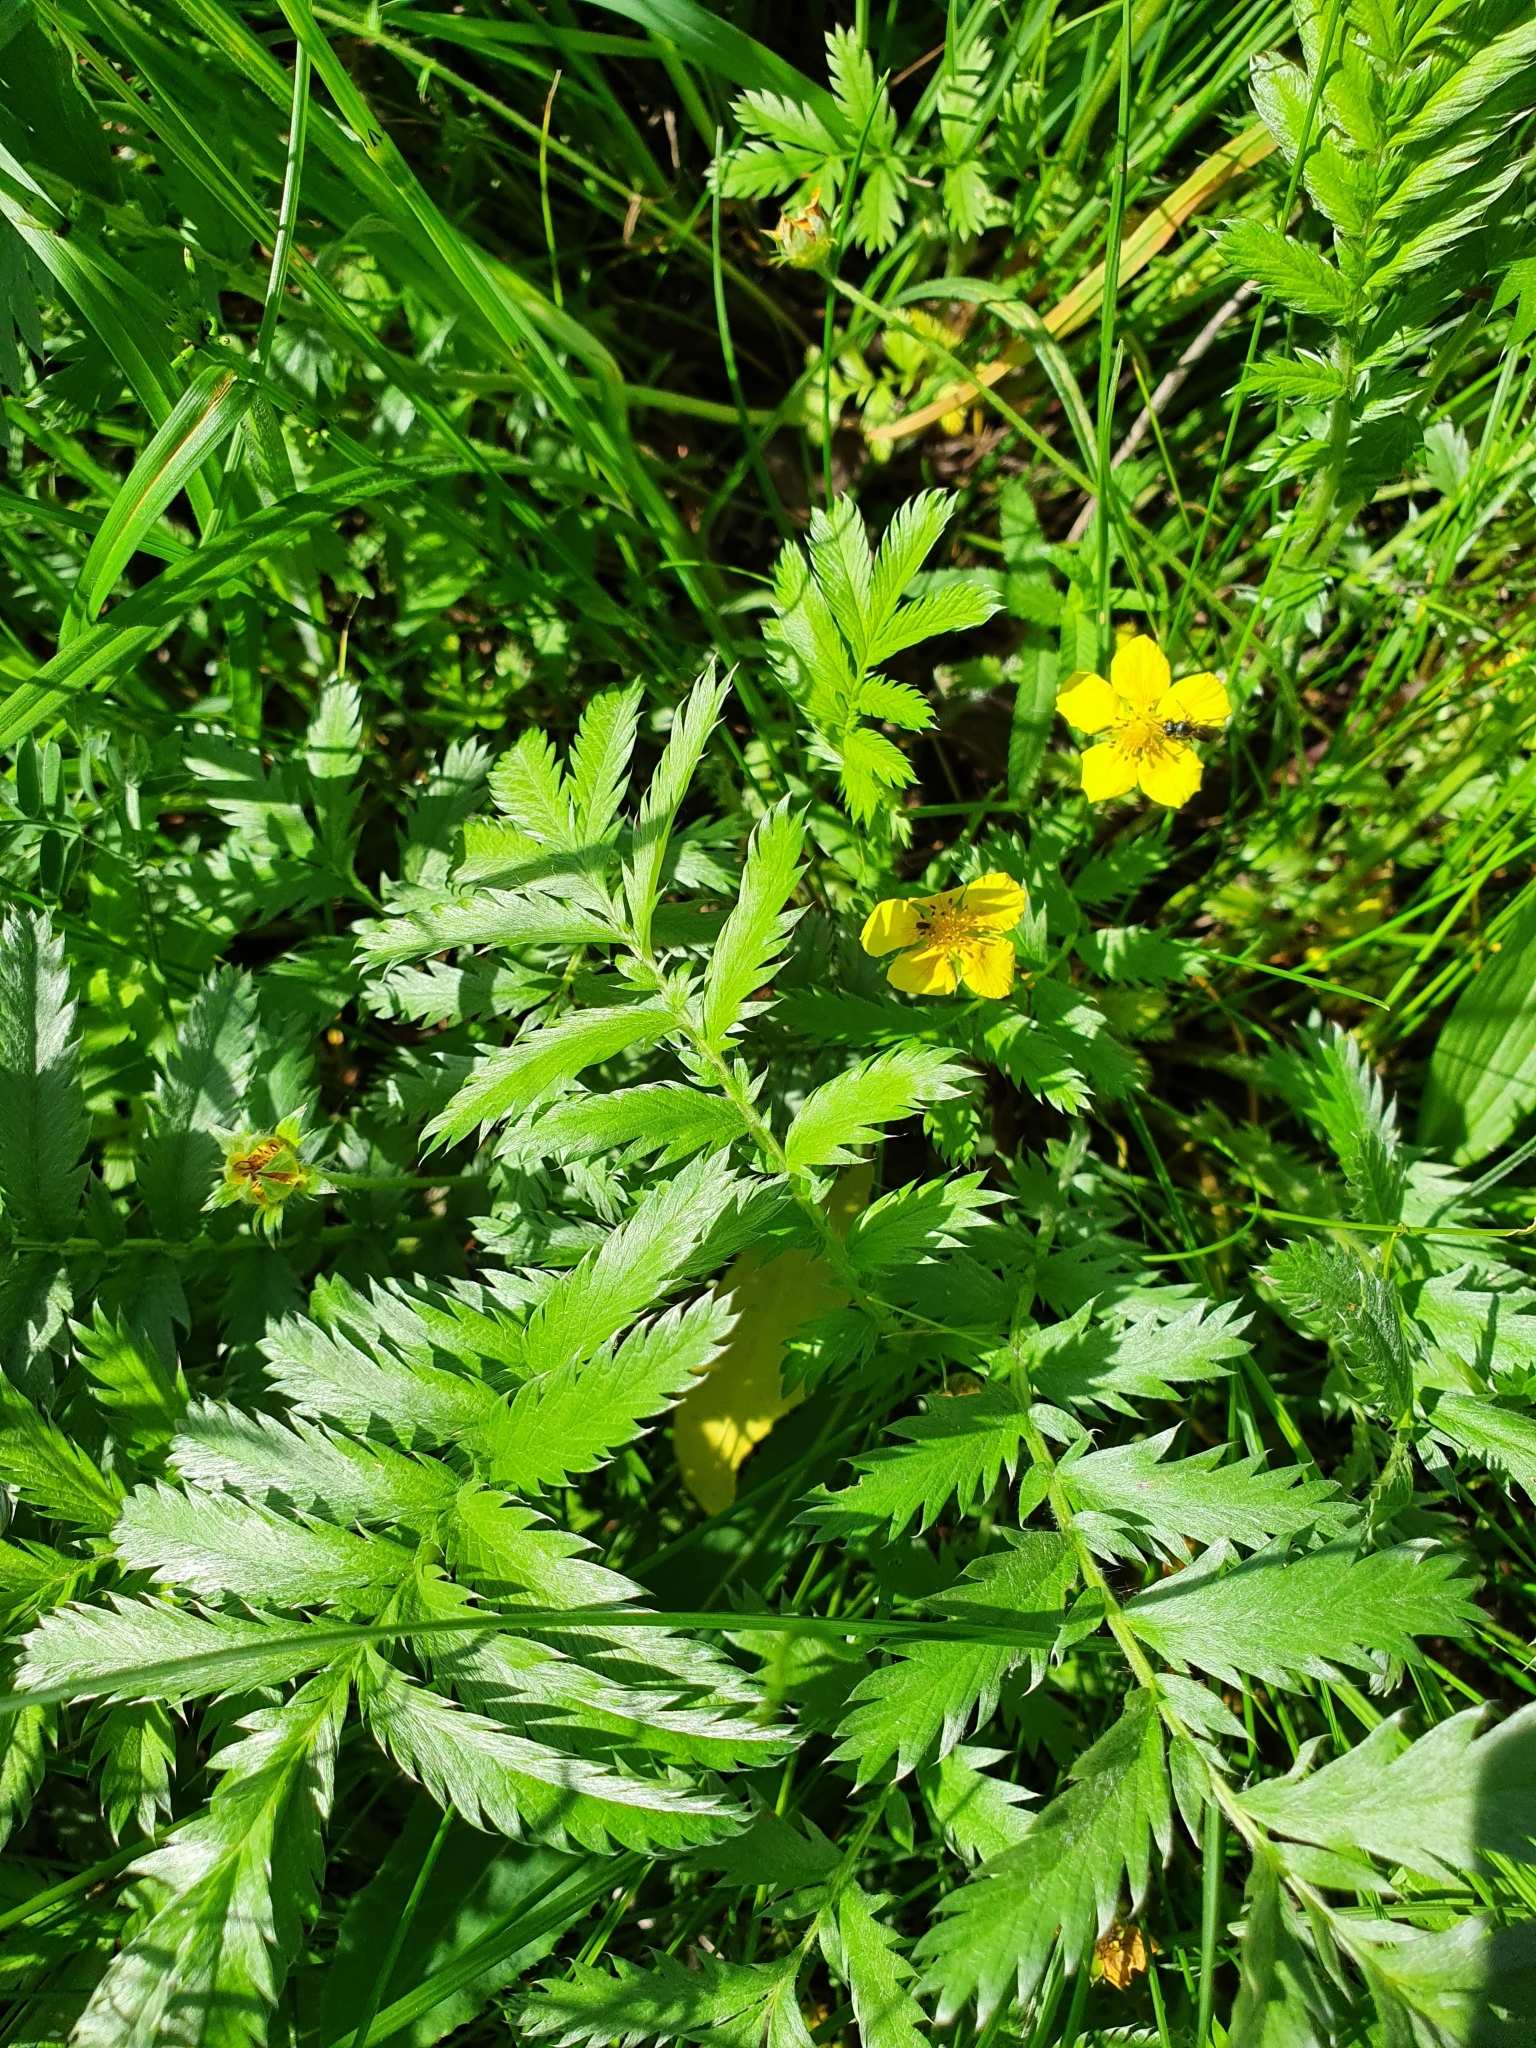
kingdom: Plantae
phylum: Tracheophyta
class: Magnoliopsida
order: Rosales
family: Rosaceae
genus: Argentina
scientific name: Argentina anserina
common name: Common silverweed
